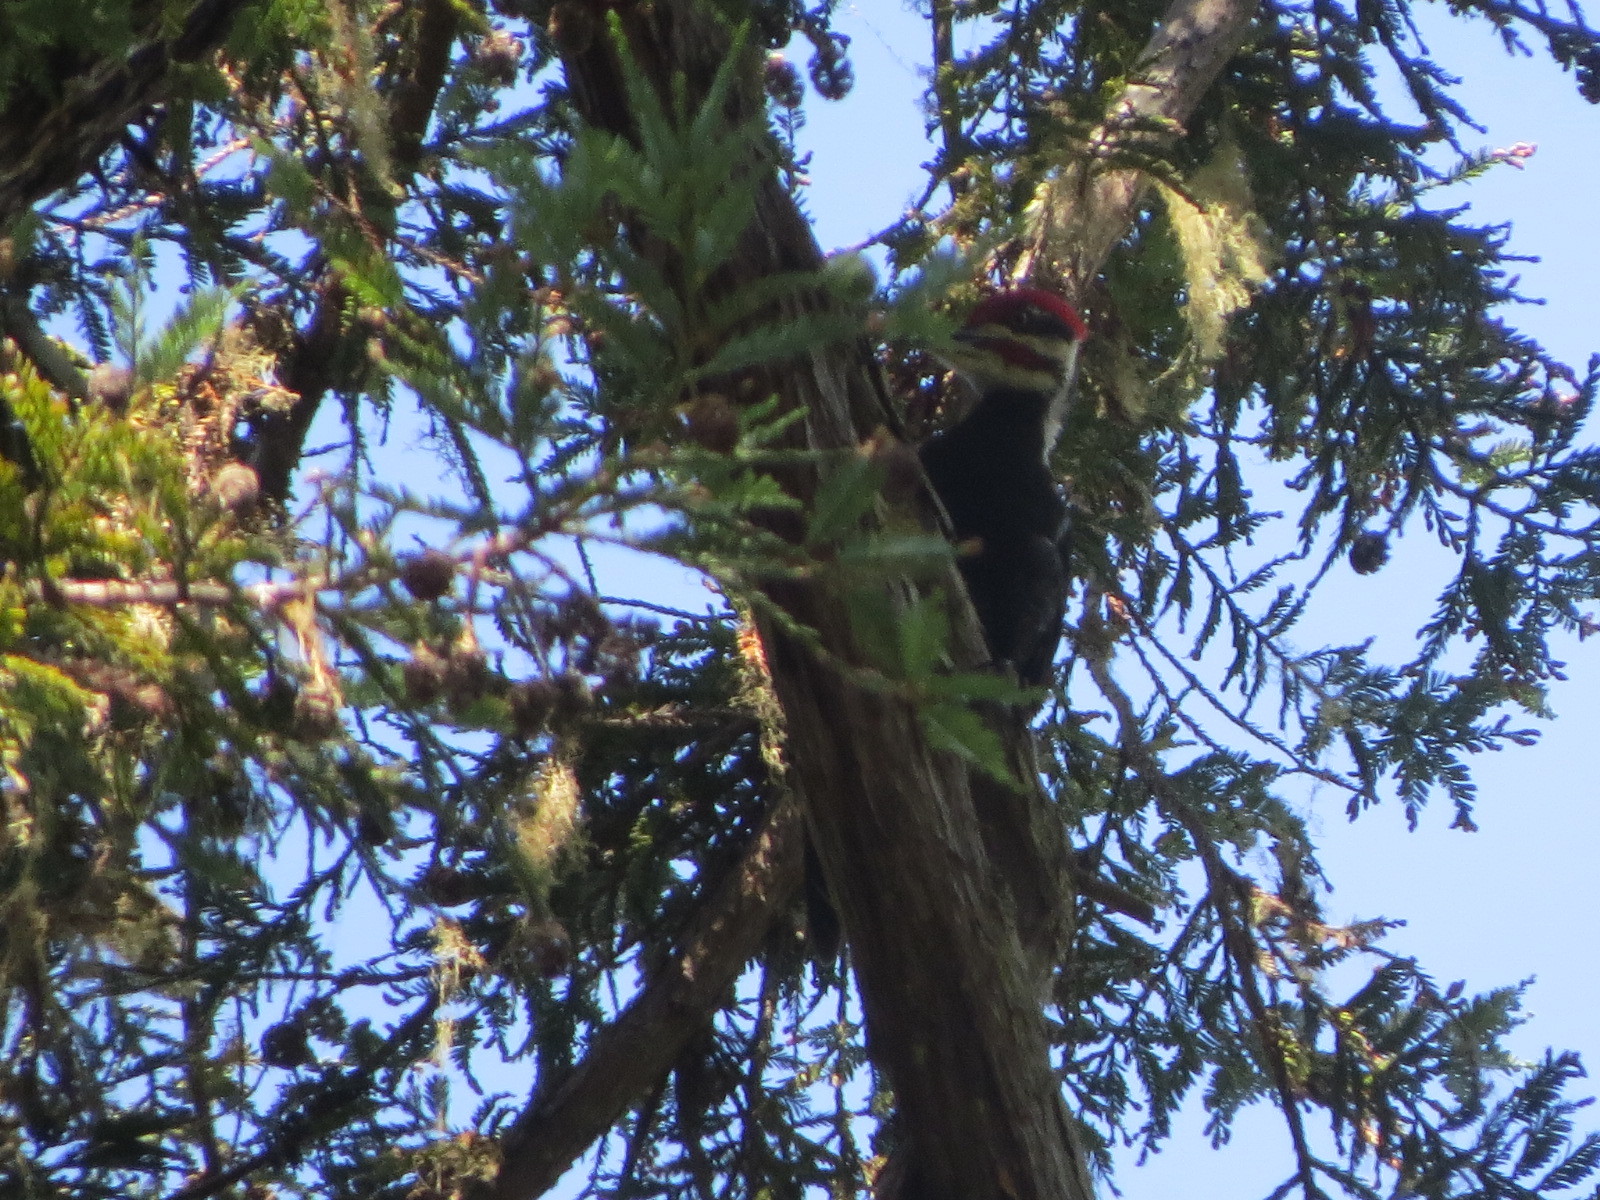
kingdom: Animalia
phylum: Chordata
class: Aves
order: Piciformes
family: Picidae
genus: Dryocopus
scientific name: Dryocopus pileatus
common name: Pileated woodpecker
